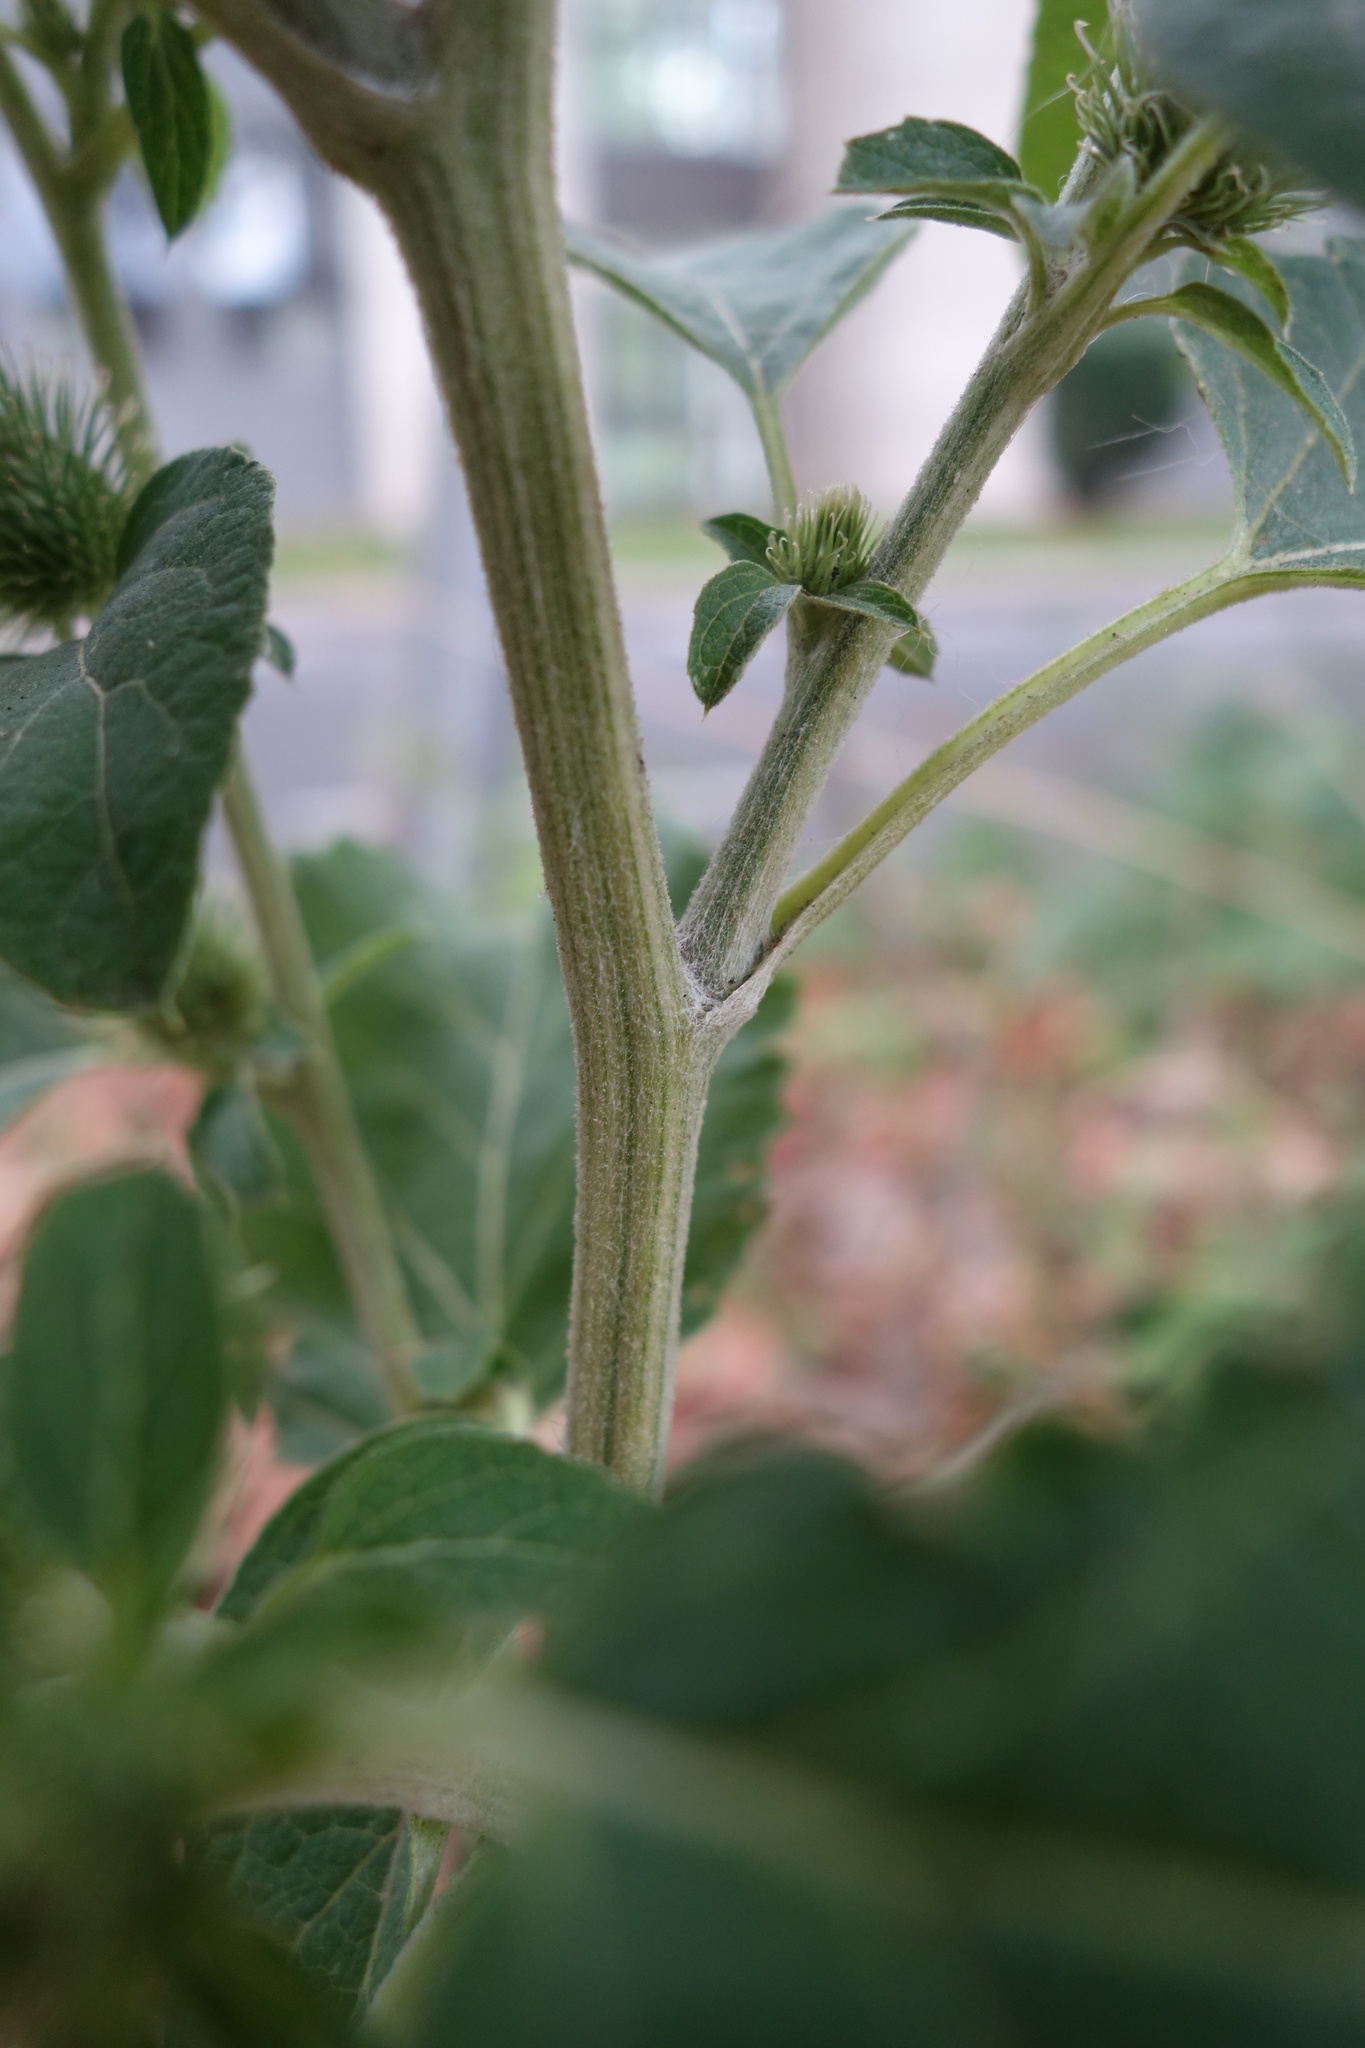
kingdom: Plantae
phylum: Tracheophyta
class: Magnoliopsida
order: Asterales
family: Asteraceae
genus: Arctium
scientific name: Arctium minus
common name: Lesser burdock
